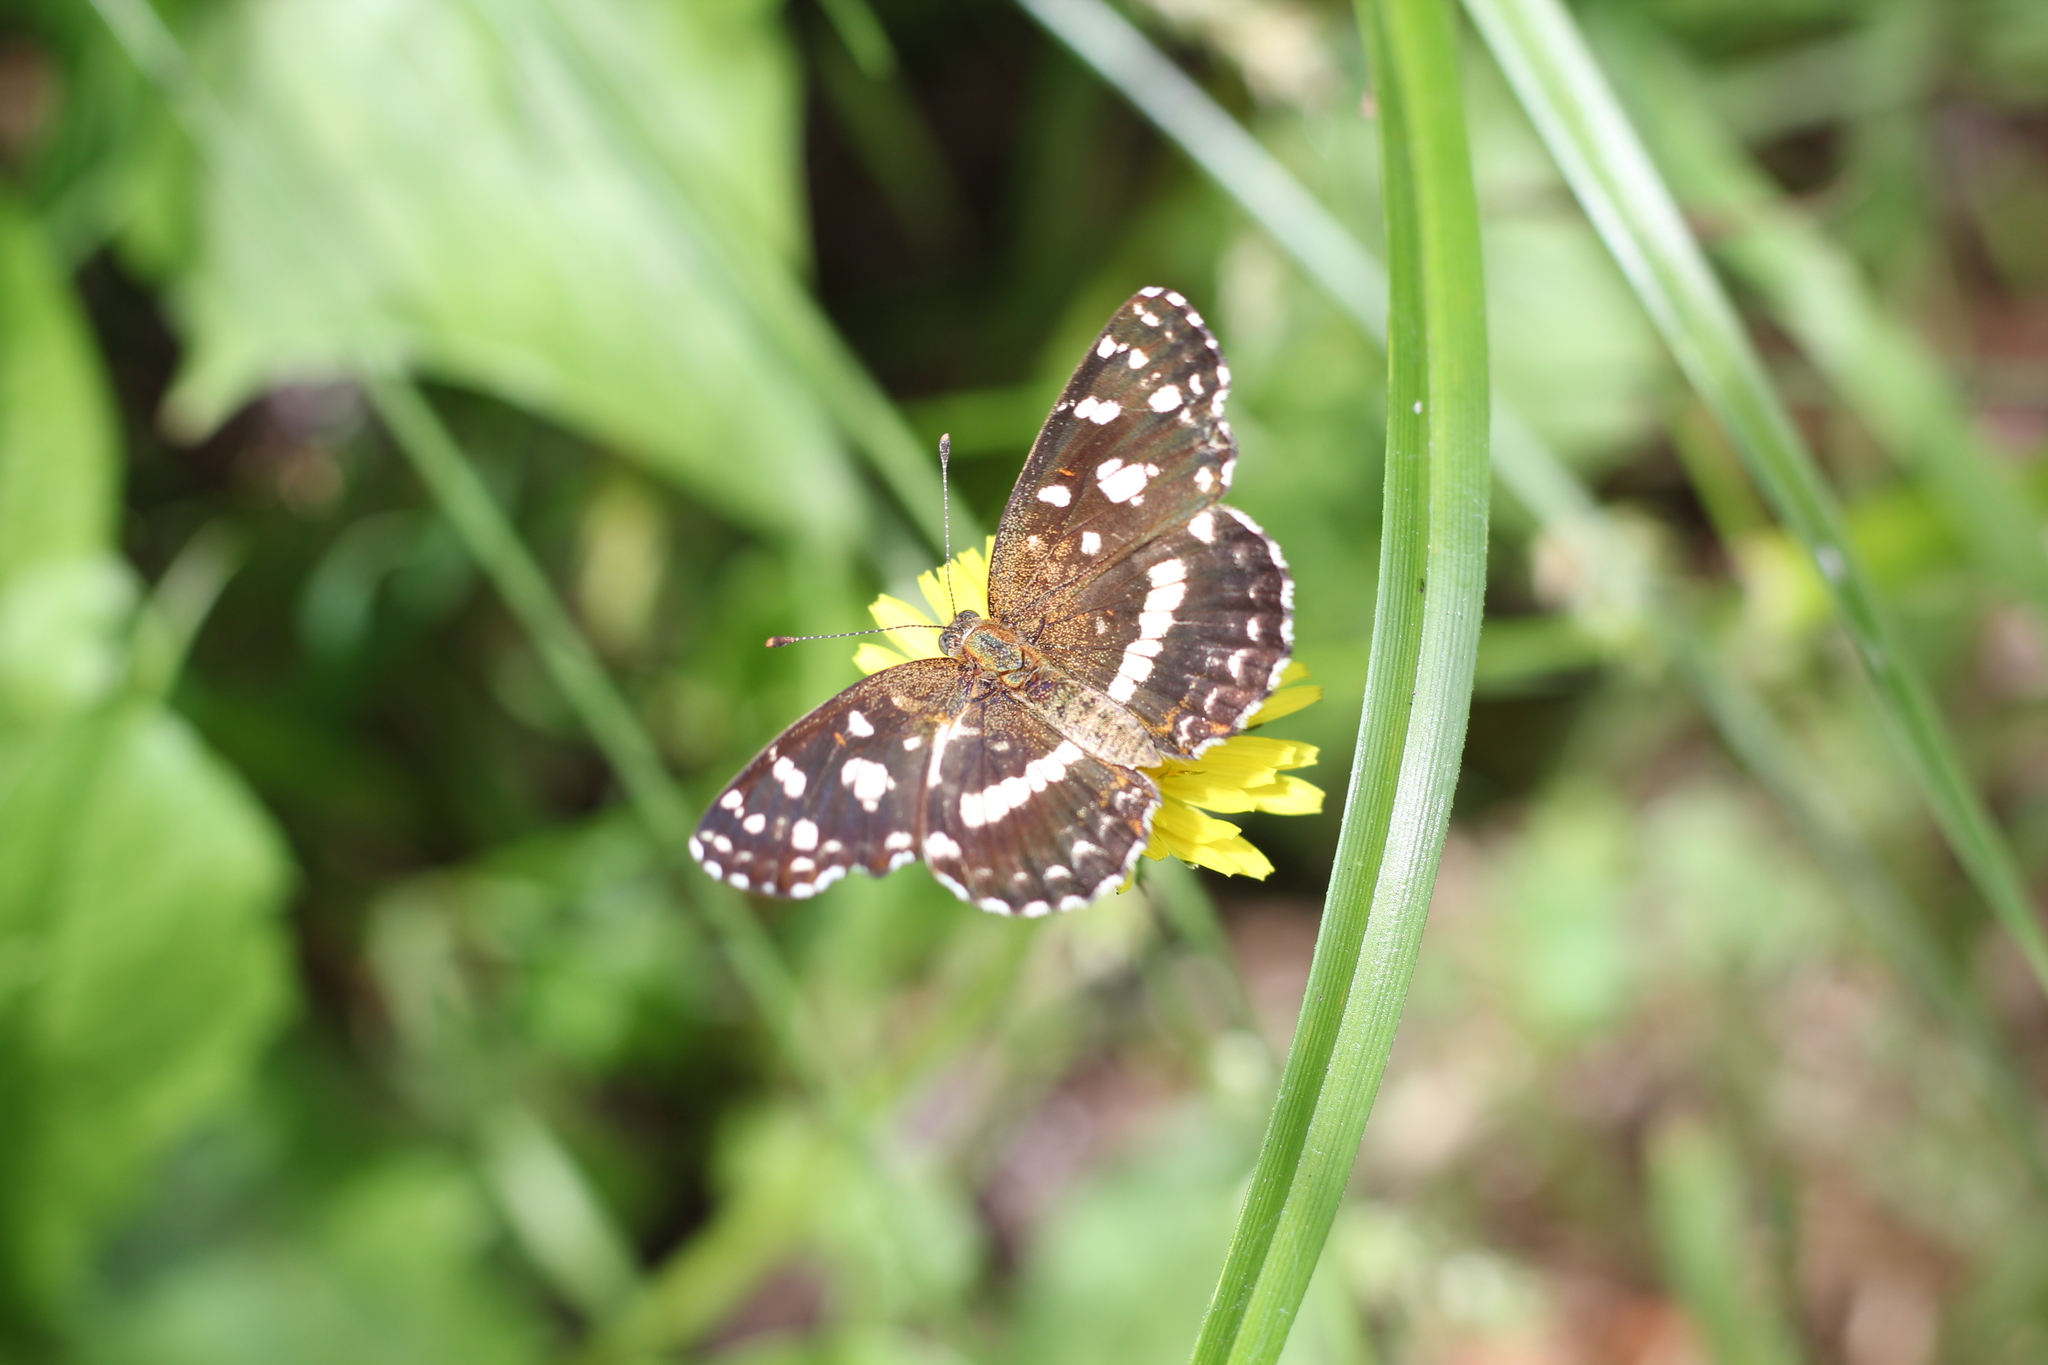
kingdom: Animalia
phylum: Arthropoda
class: Insecta
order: Lepidoptera
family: Nymphalidae
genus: Ortilia
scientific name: Ortilia ithra
